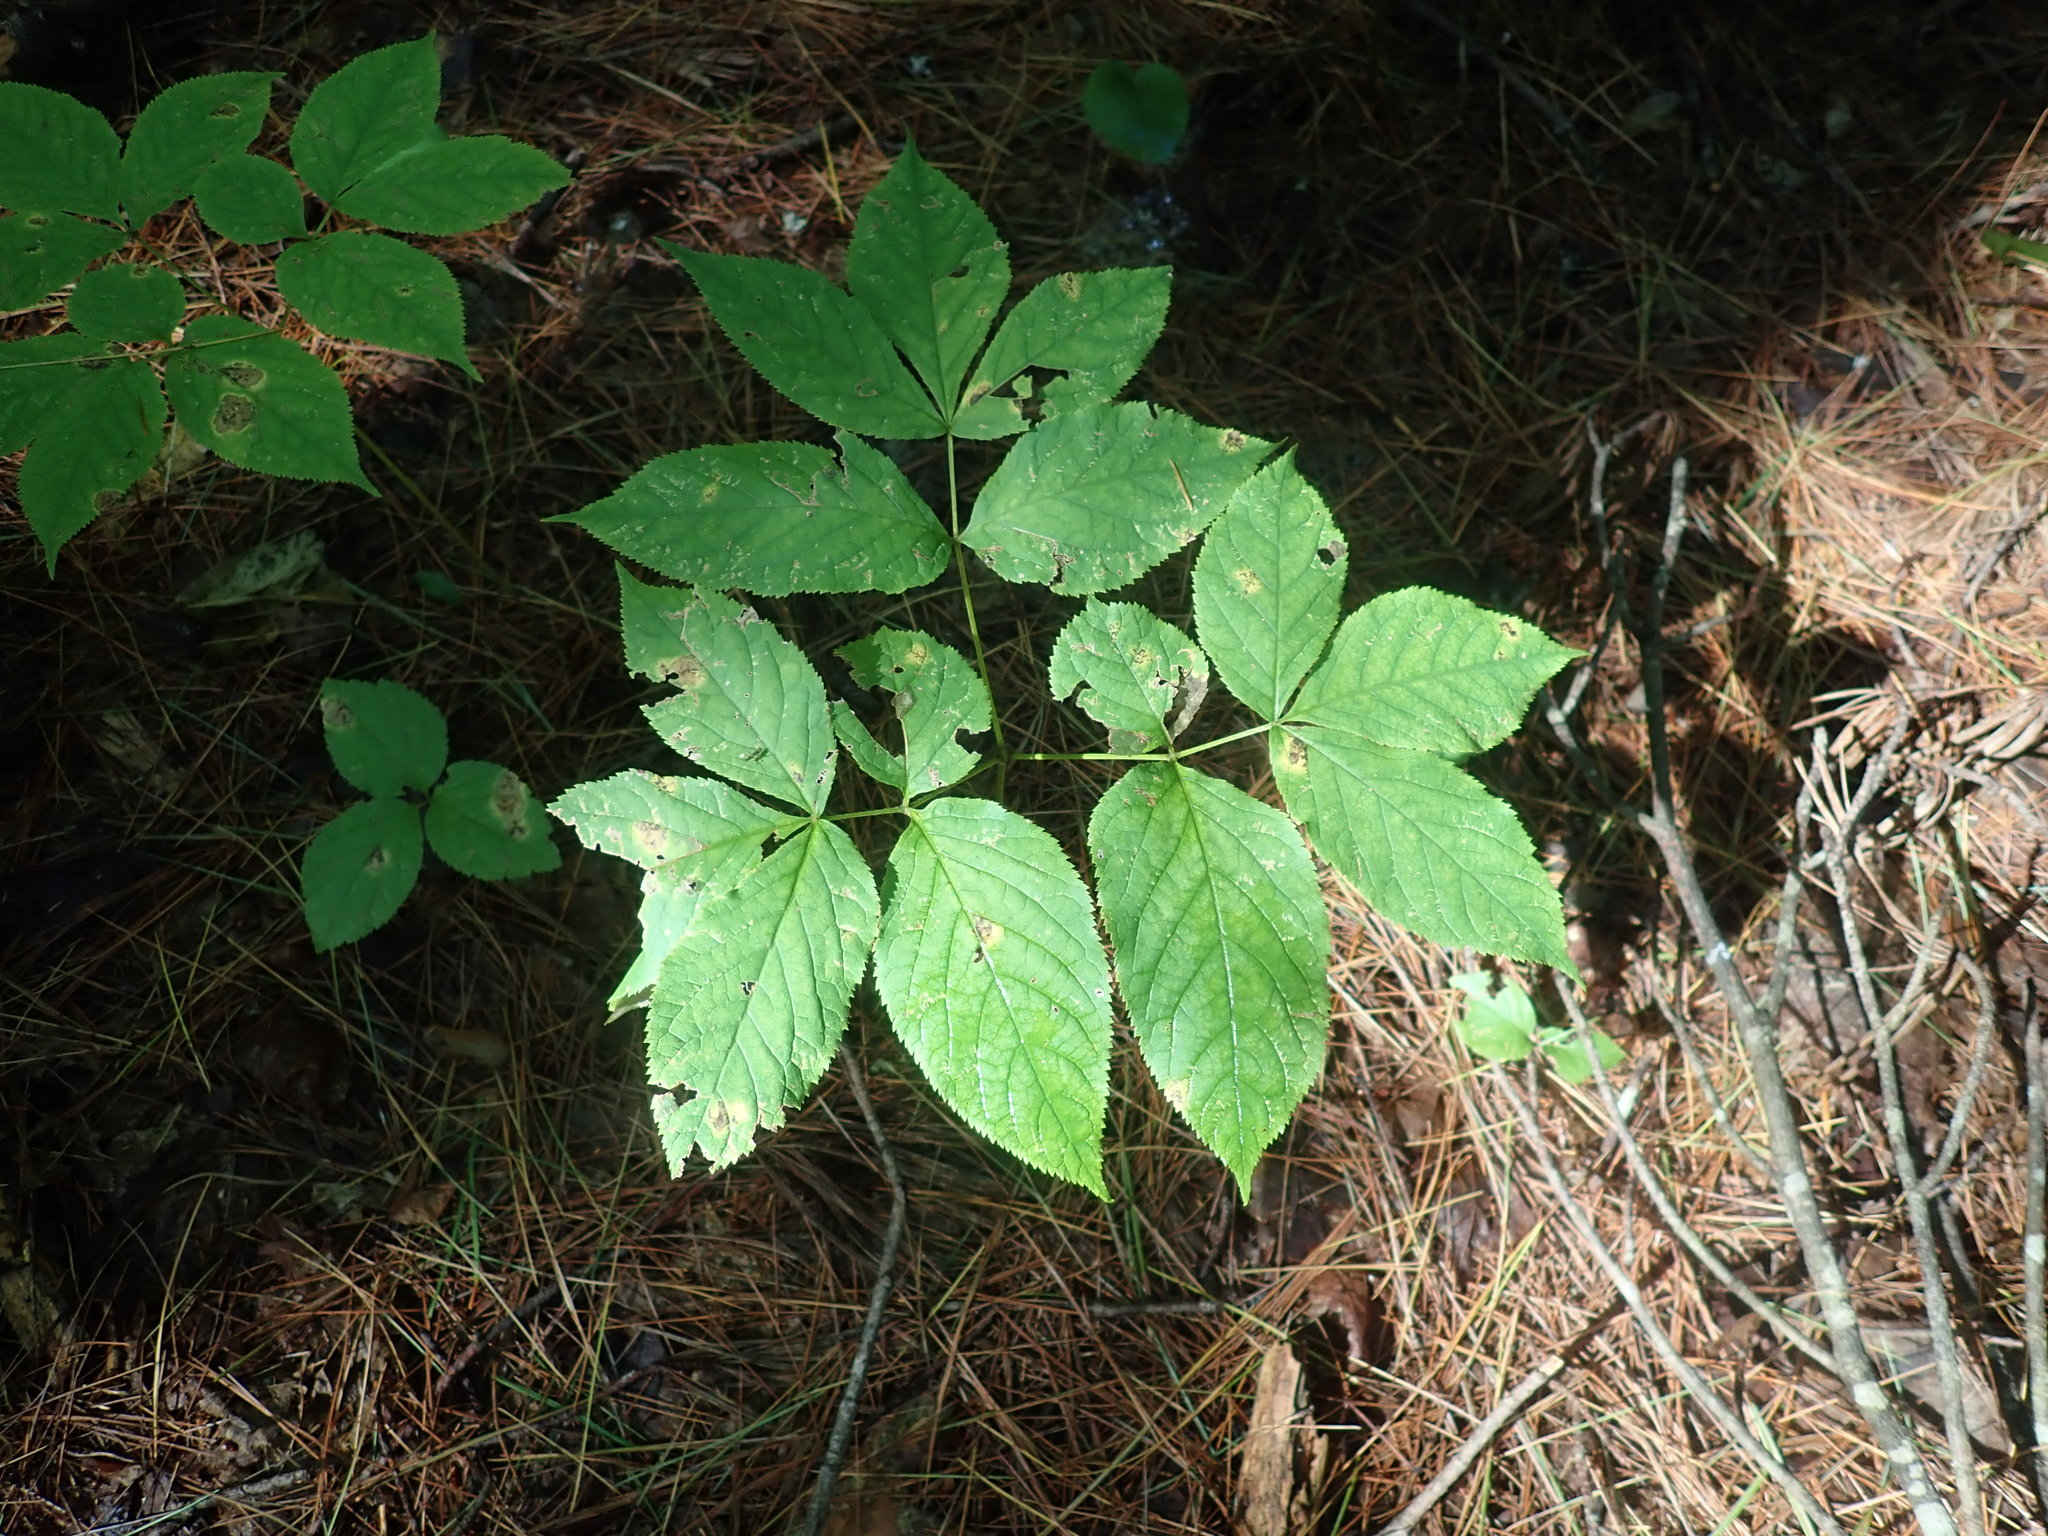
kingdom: Plantae
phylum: Tracheophyta
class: Magnoliopsida
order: Apiales
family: Araliaceae
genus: Aralia
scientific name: Aralia nudicaulis
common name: Wild sarsaparilla
